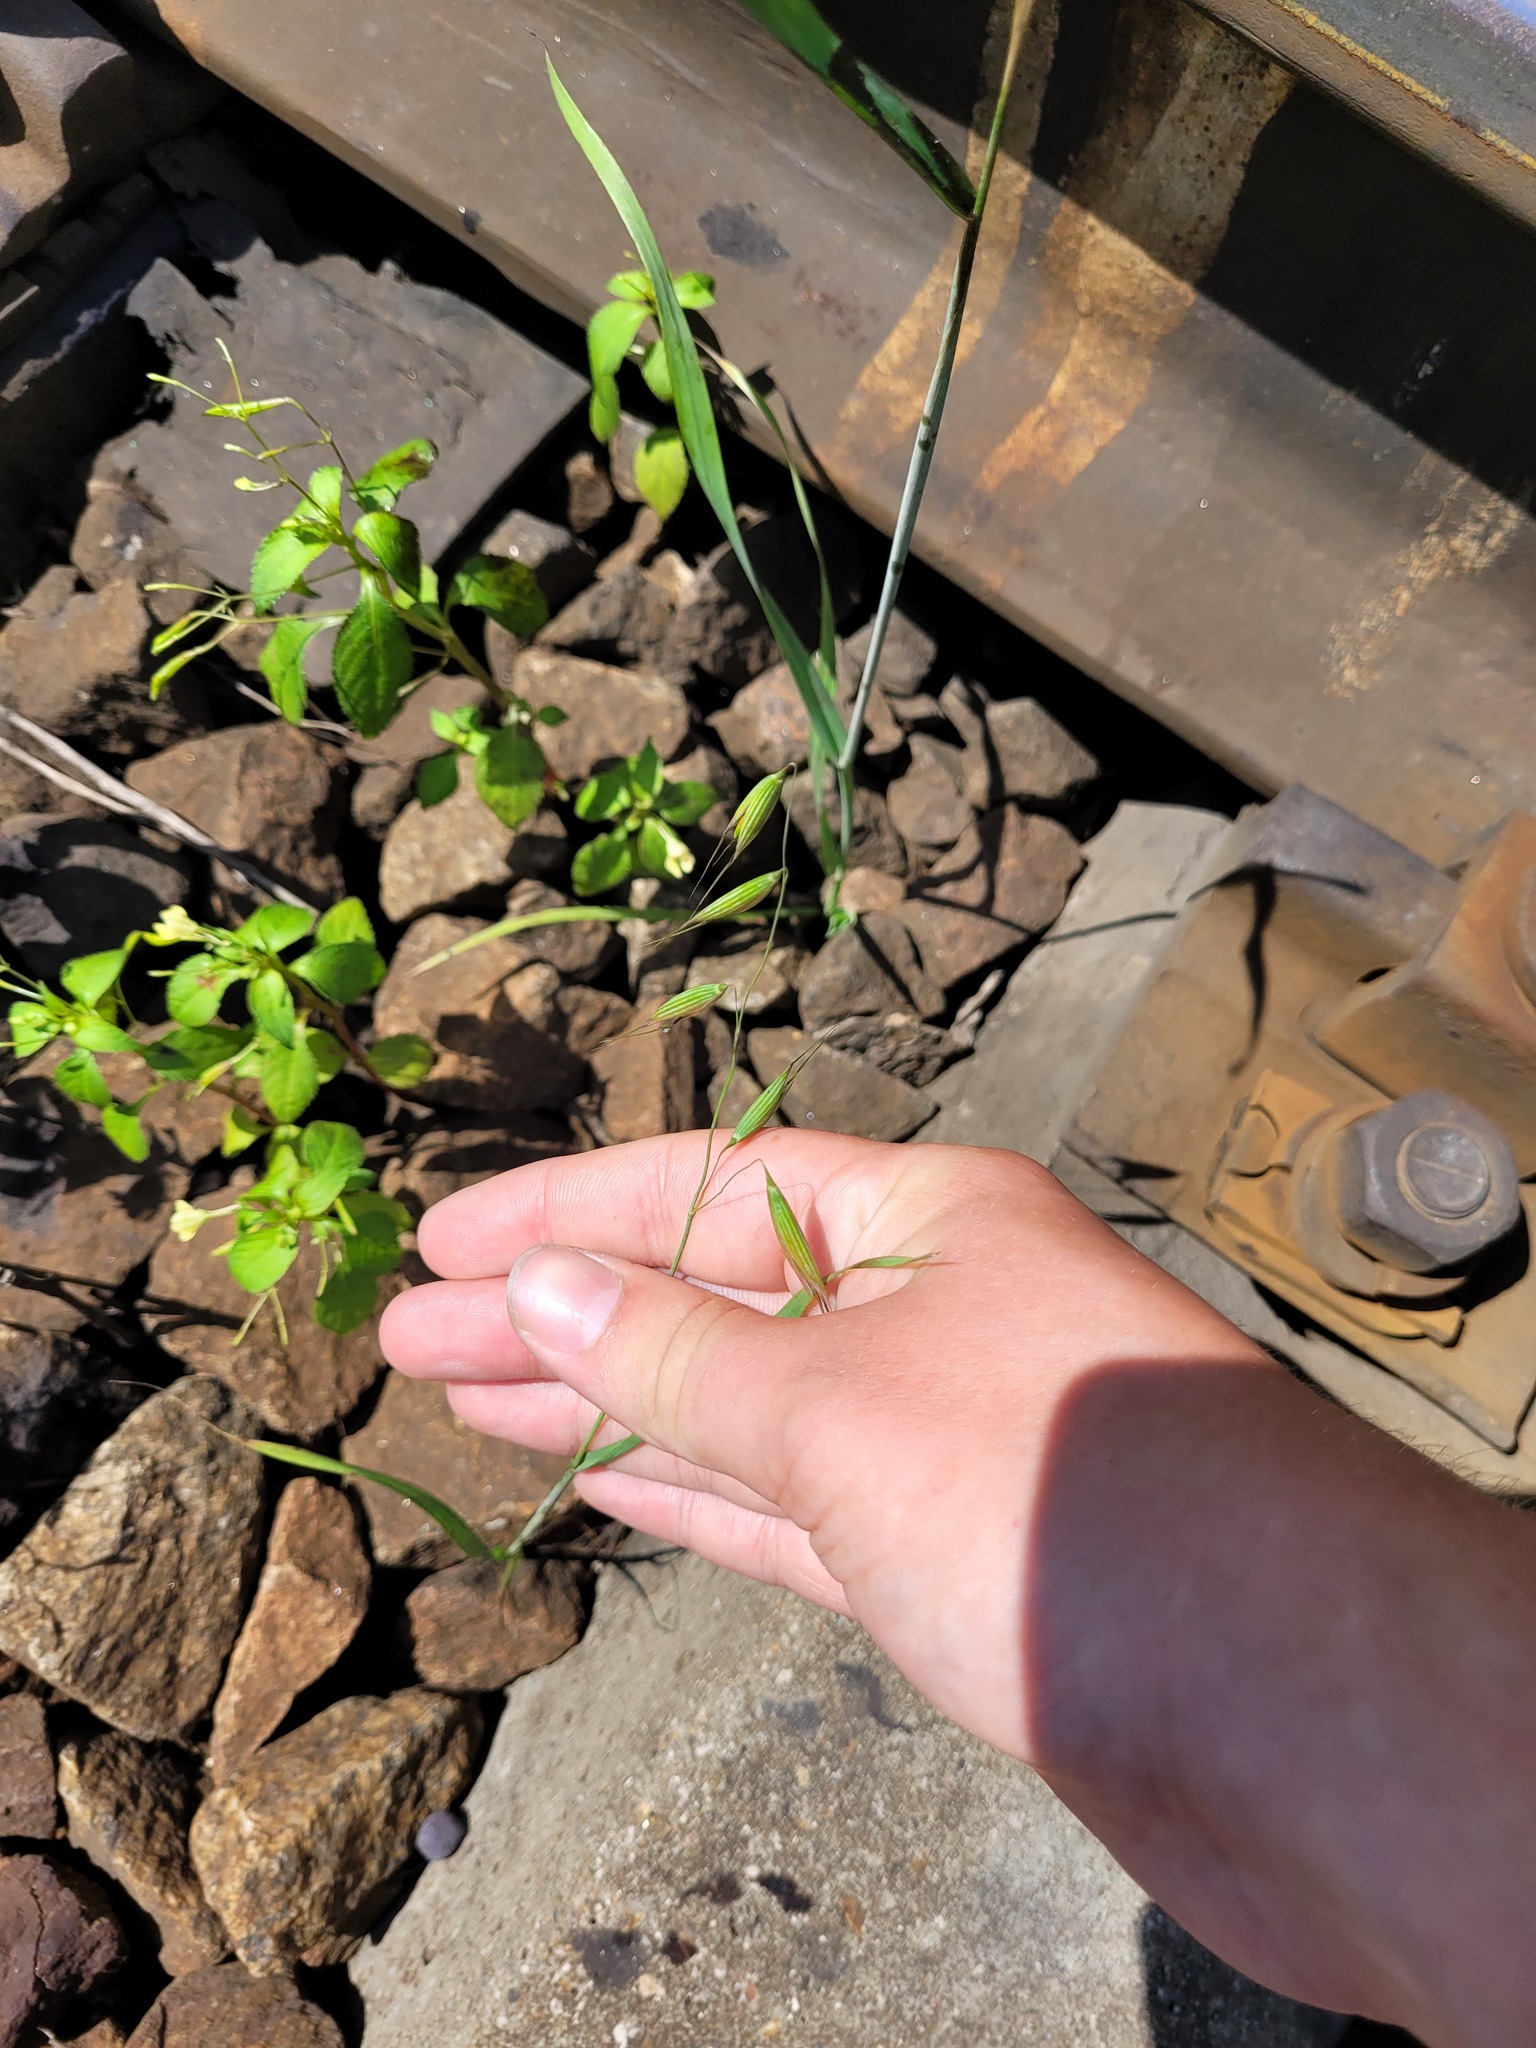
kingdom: Plantae
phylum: Tracheophyta
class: Liliopsida
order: Poales
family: Poaceae
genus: Avena
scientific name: Avena fatua
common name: Wild oat
